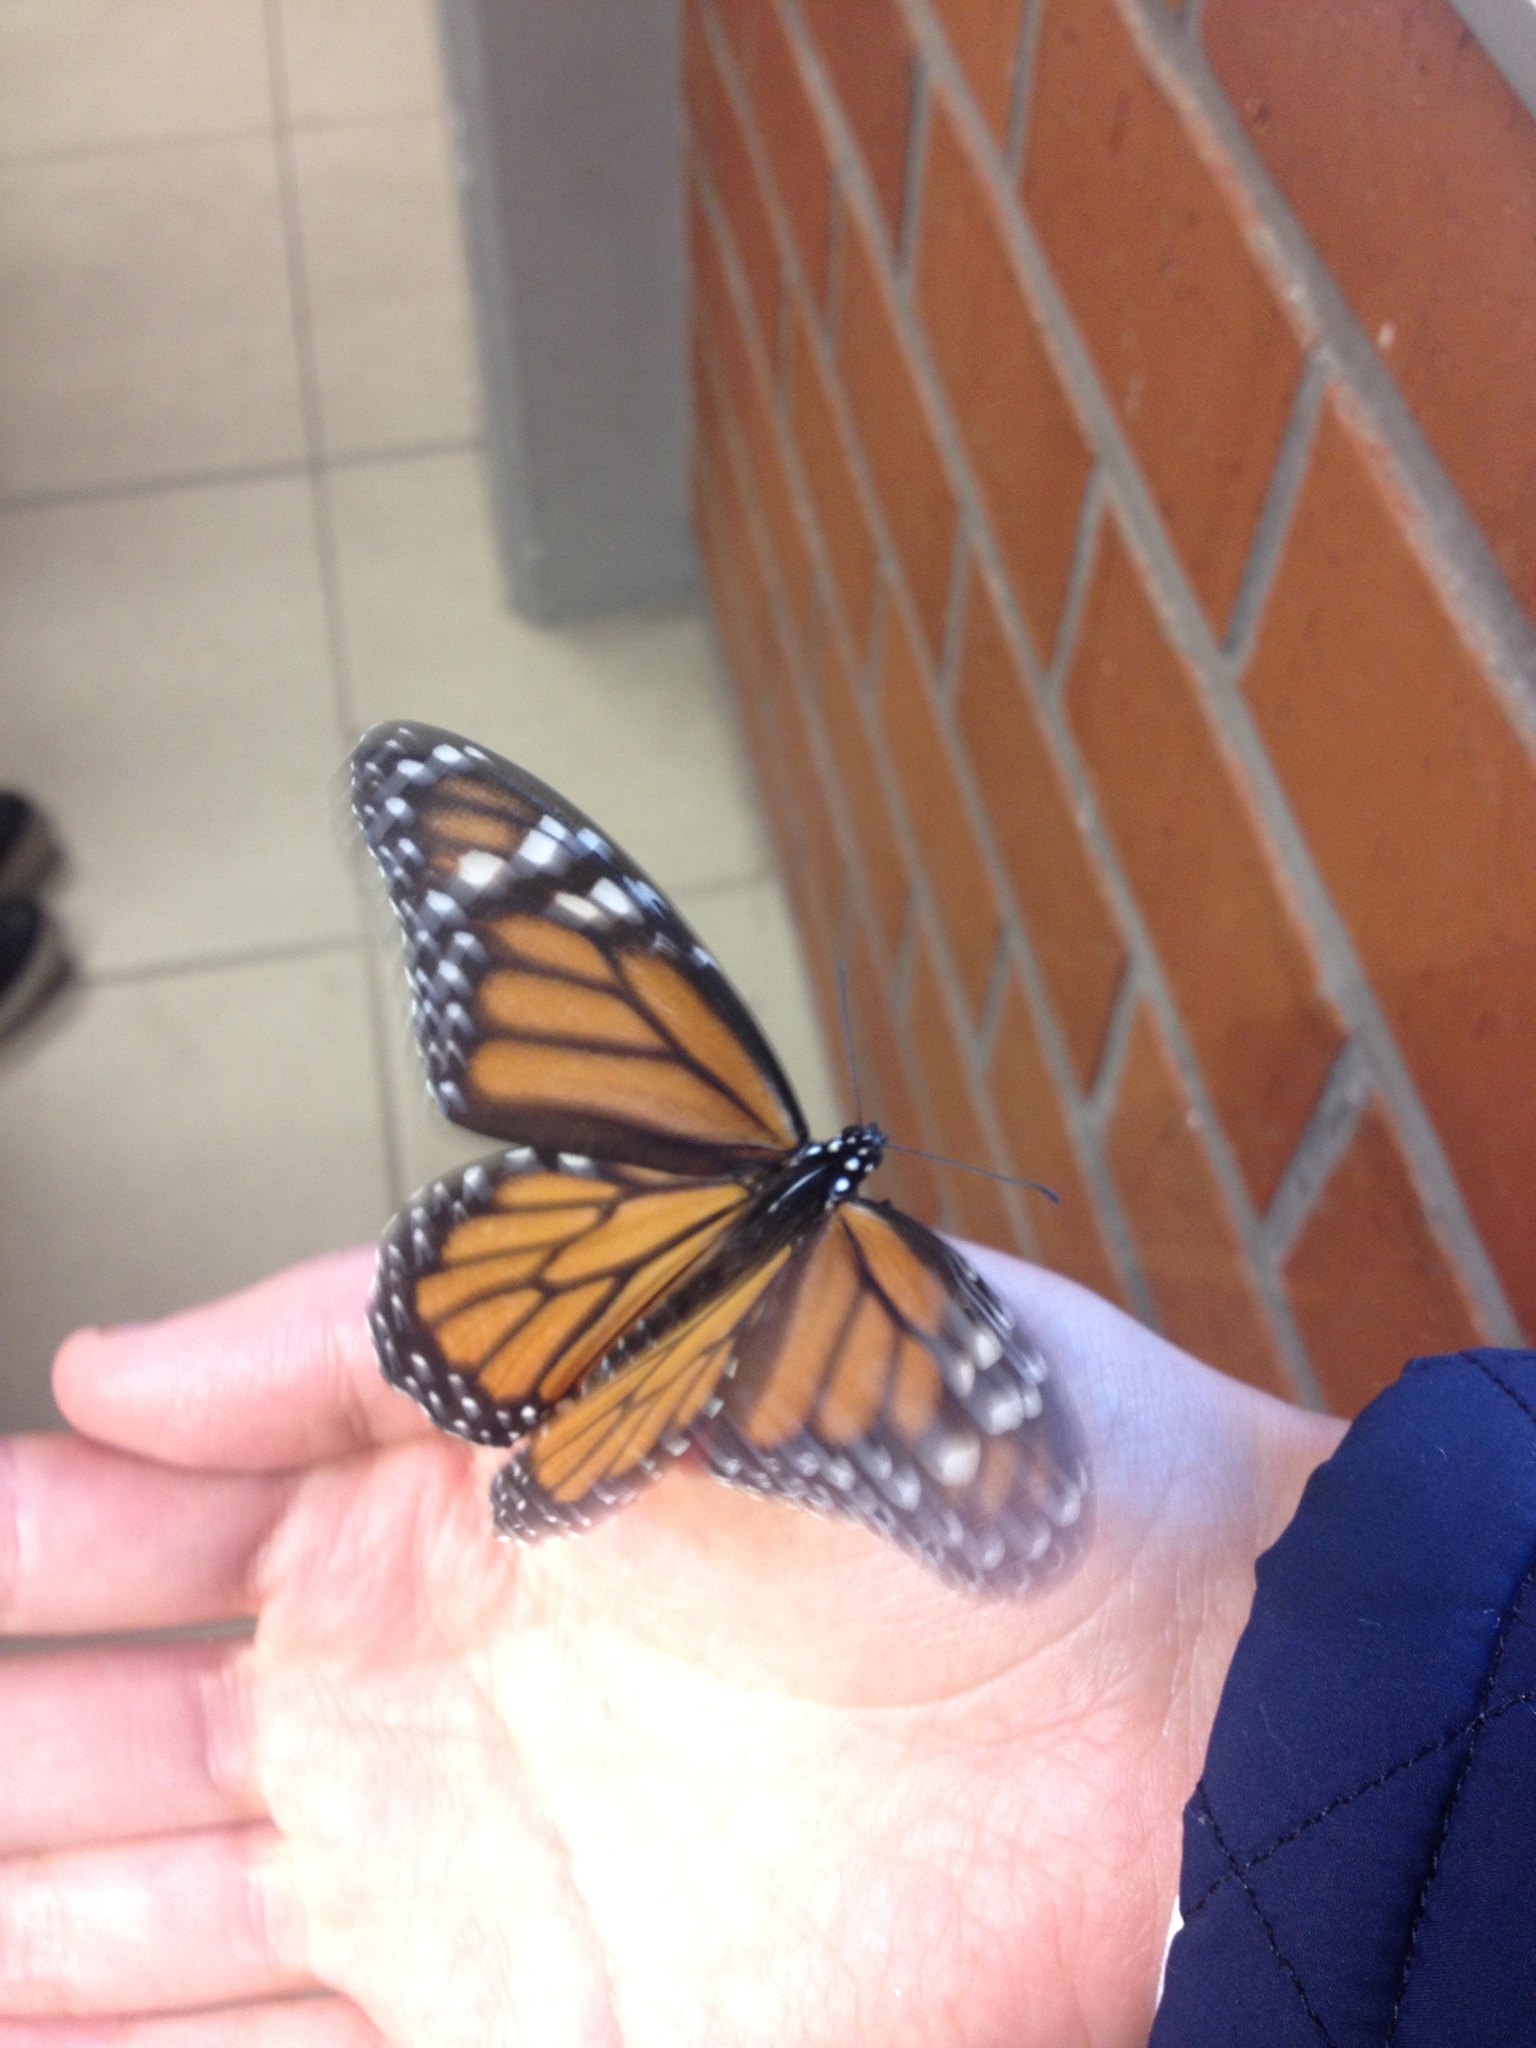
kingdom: Animalia
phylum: Arthropoda
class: Insecta
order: Lepidoptera
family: Nymphalidae
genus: Danaus
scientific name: Danaus plexippus
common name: Monarch
